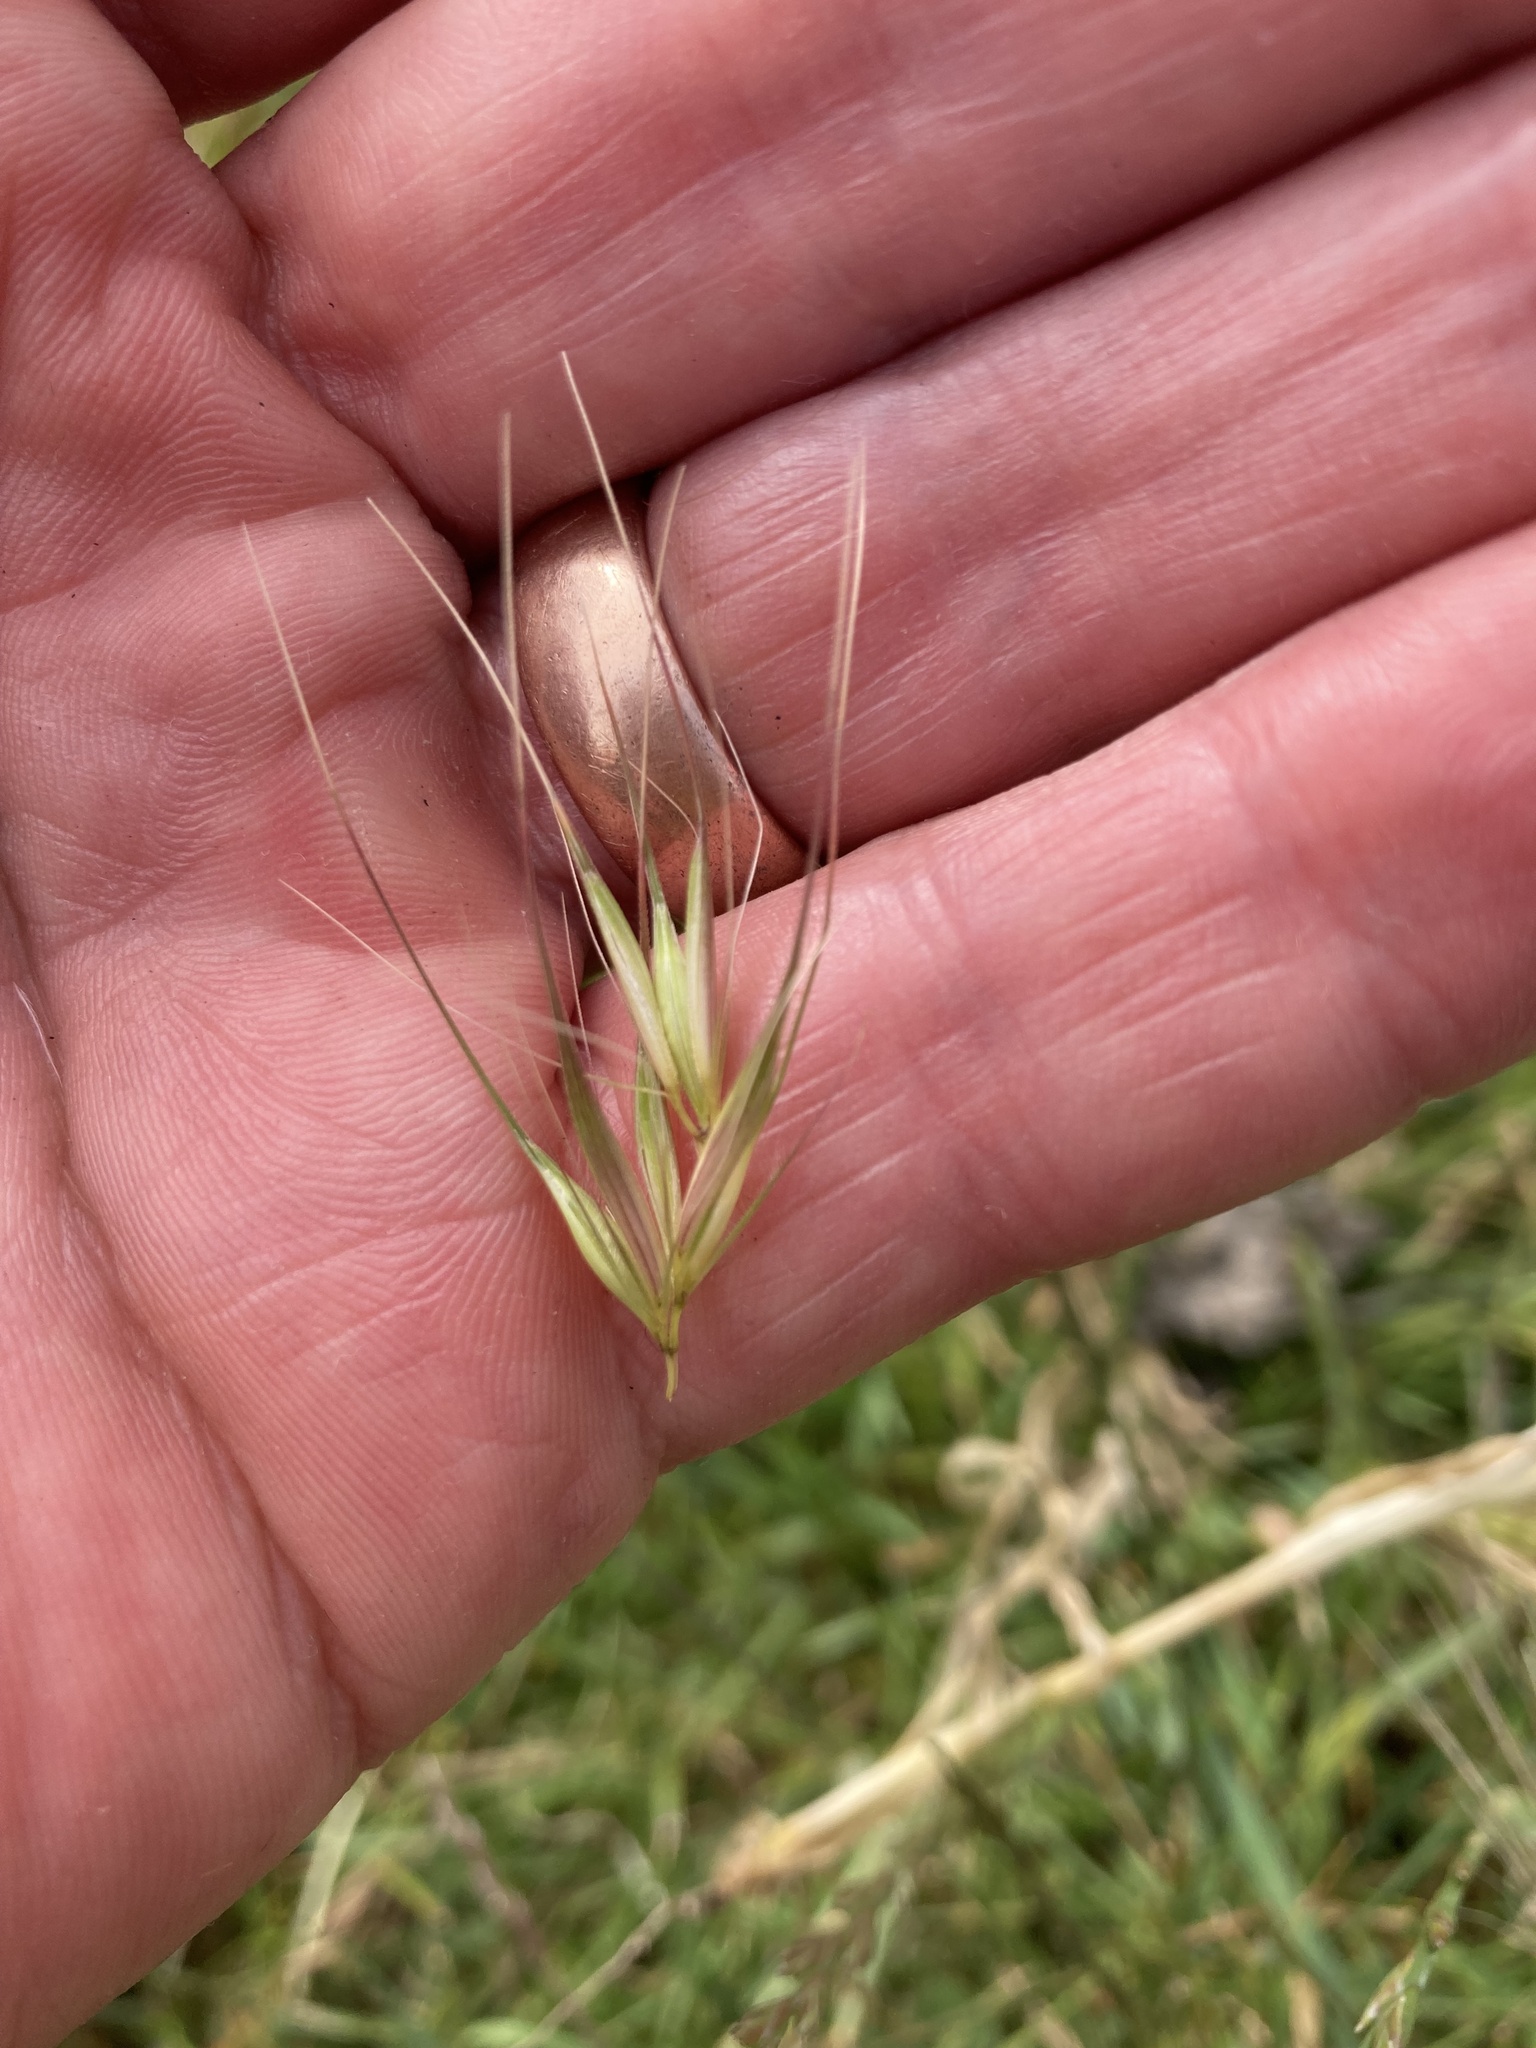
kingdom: Plantae
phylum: Tracheophyta
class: Liliopsida
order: Poales
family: Poaceae
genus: Hordeum
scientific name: Hordeum murinum
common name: Wall barley
